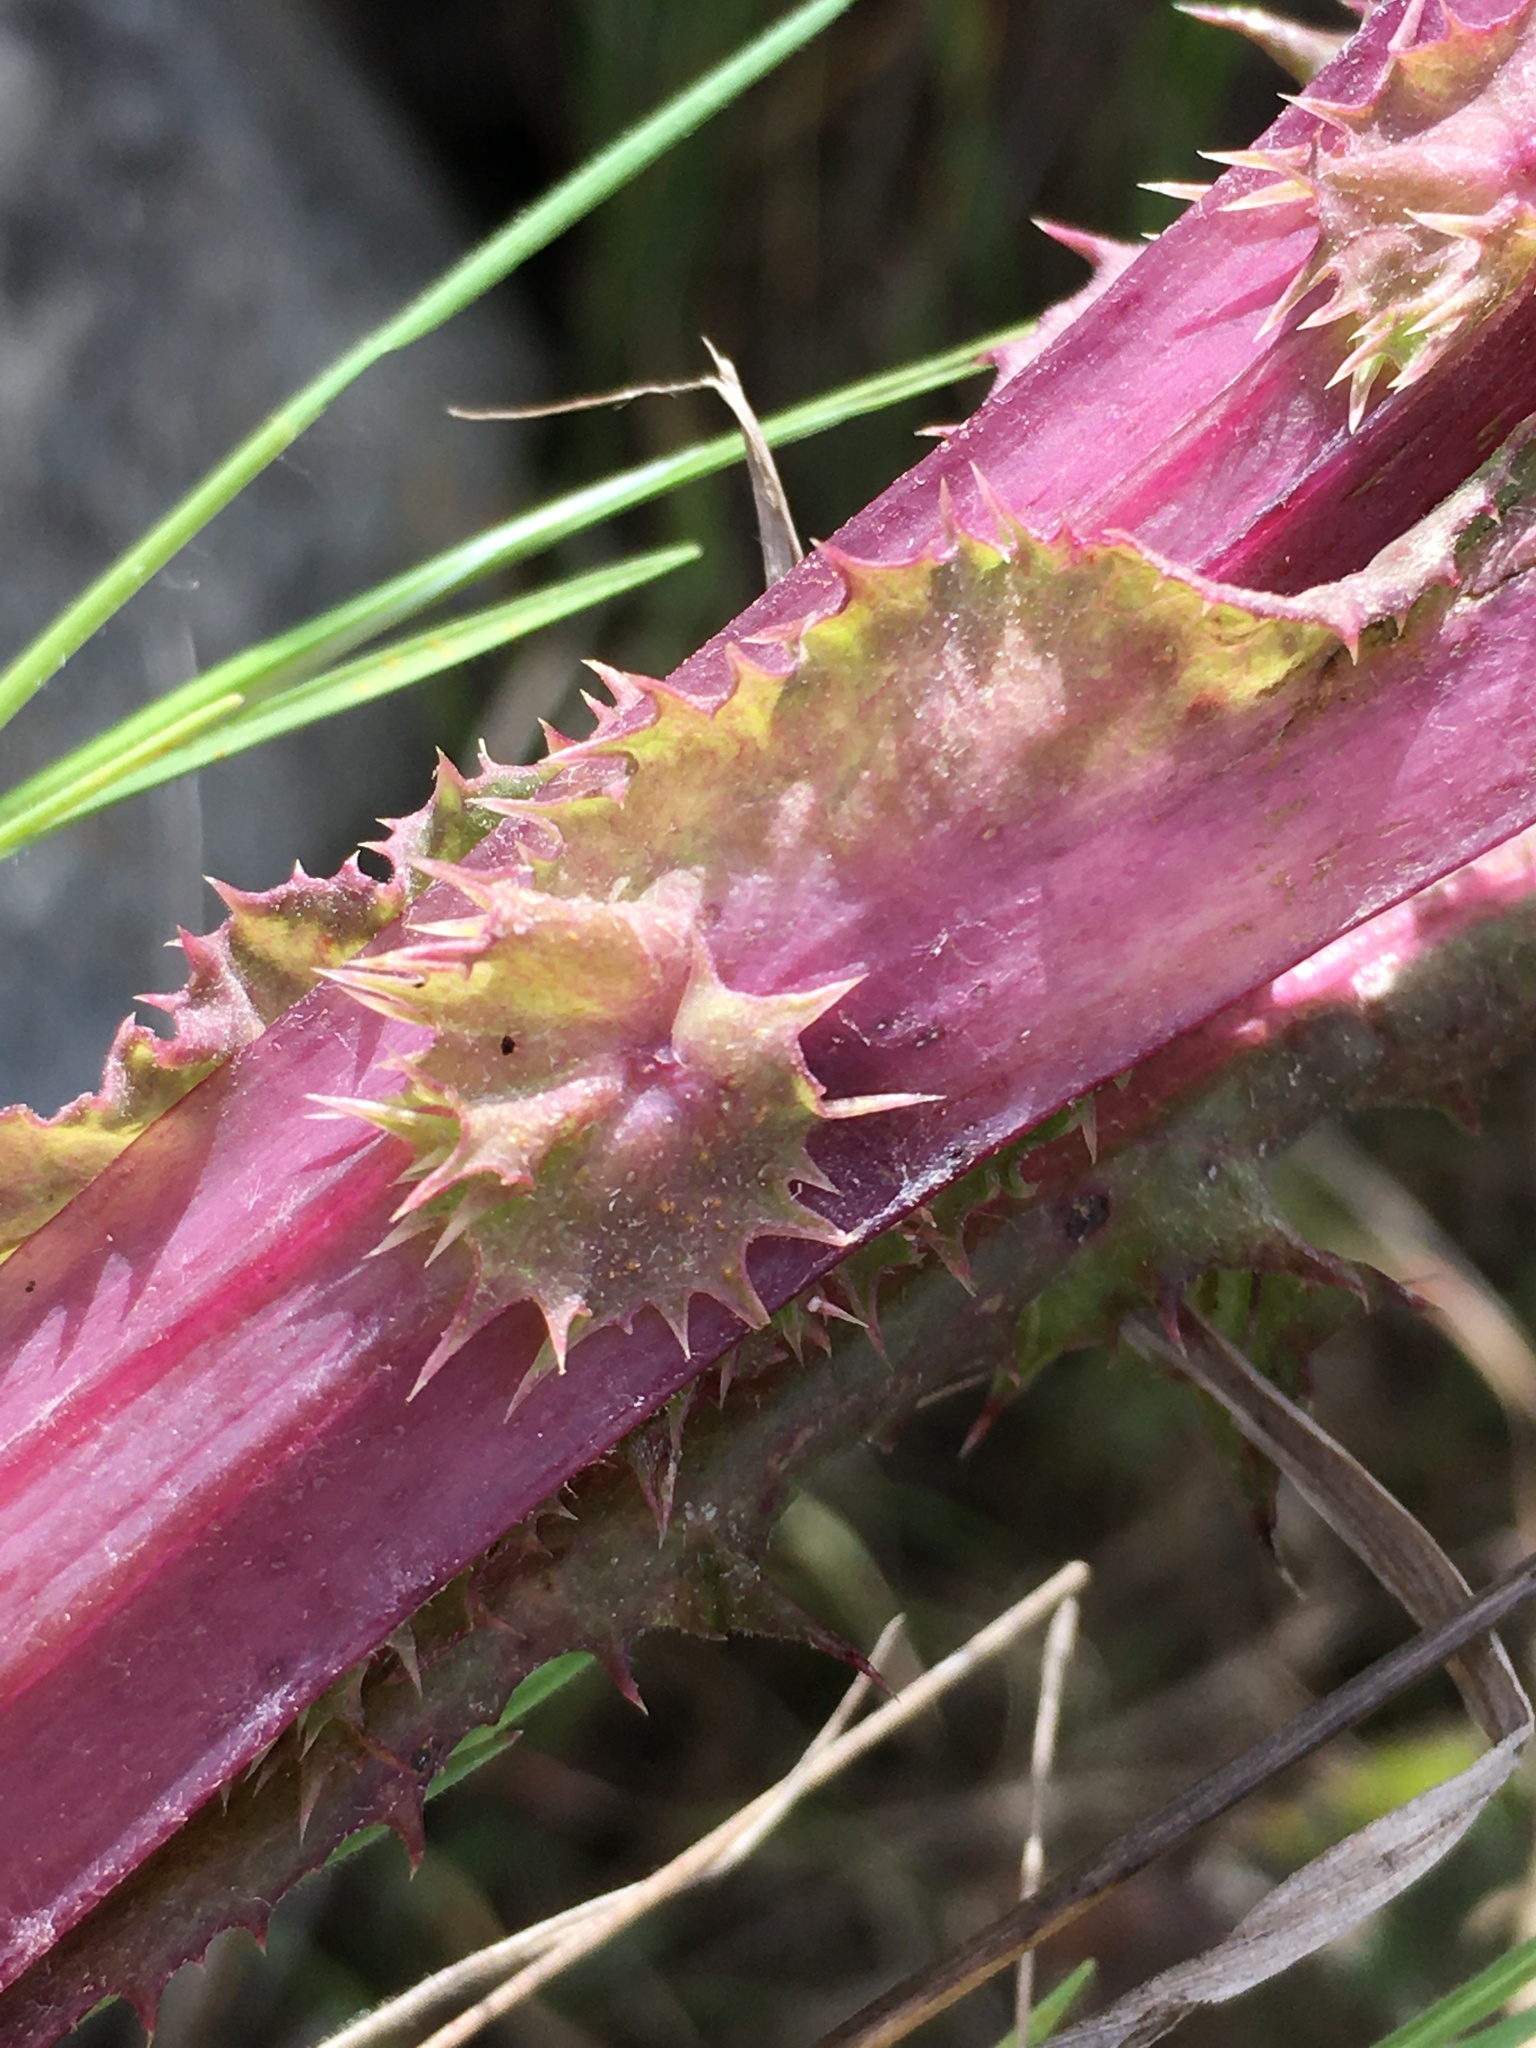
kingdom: Plantae
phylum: Tracheophyta
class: Magnoliopsida
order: Asterales
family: Asteraceae
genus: Sonchus
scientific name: Sonchus asper
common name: Prickly sow-thistle
